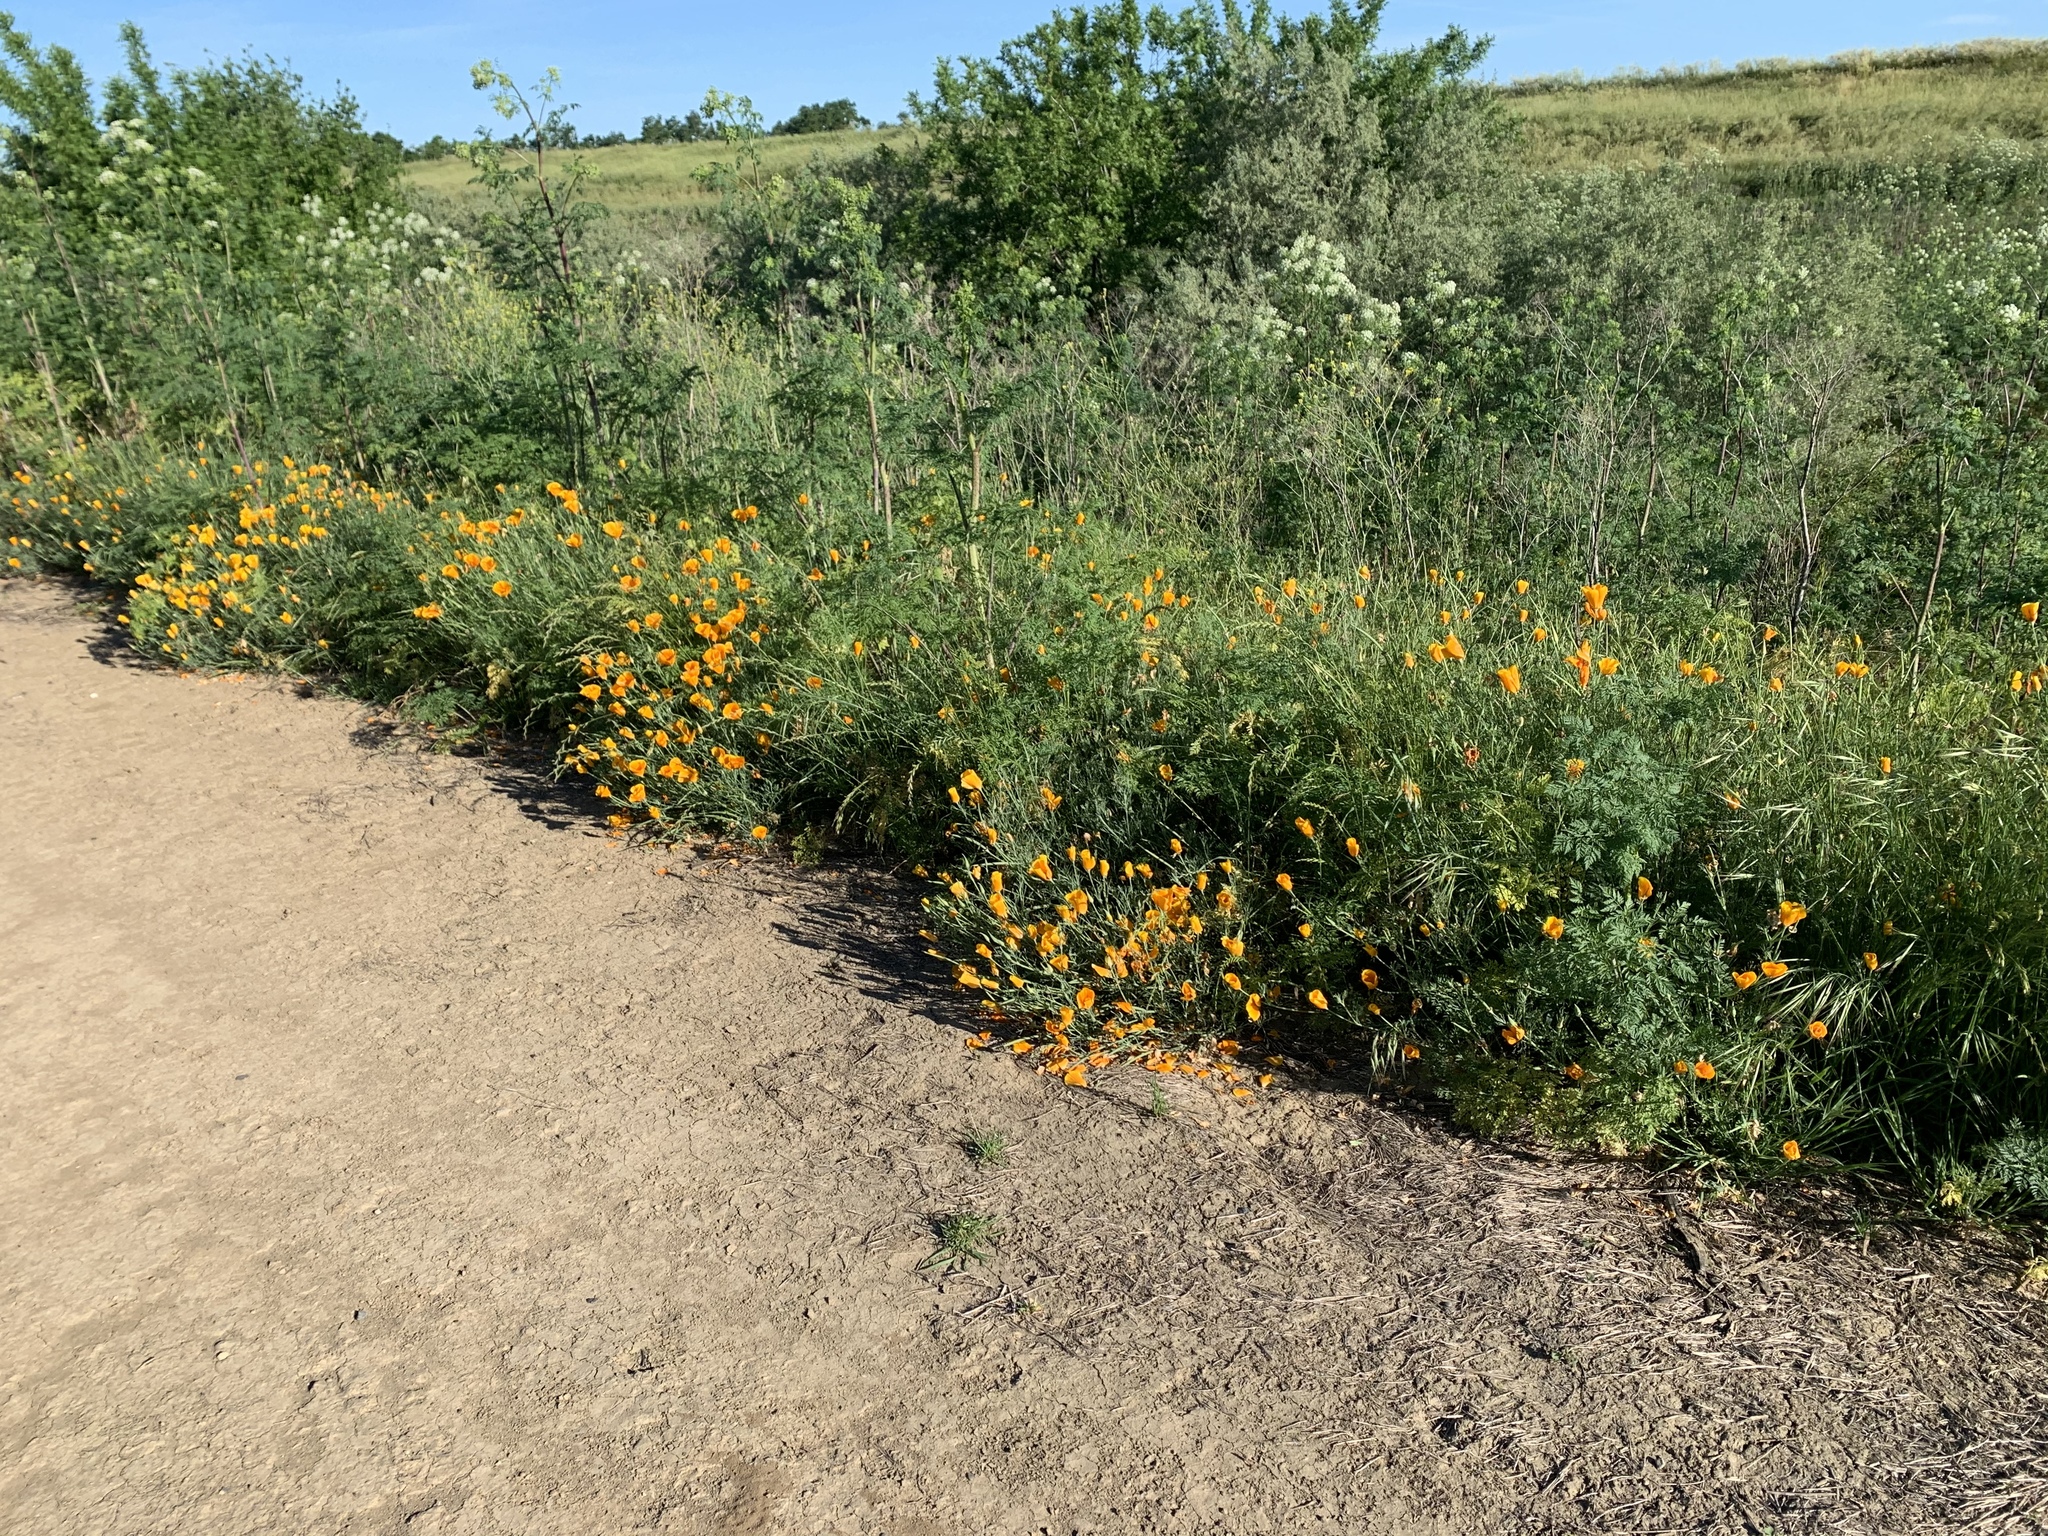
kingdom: Plantae
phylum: Tracheophyta
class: Magnoliopsida
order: Ranunculales
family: Papaveraceae
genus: Eschscholzia
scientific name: Eschscholzia californica
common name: California poppy
